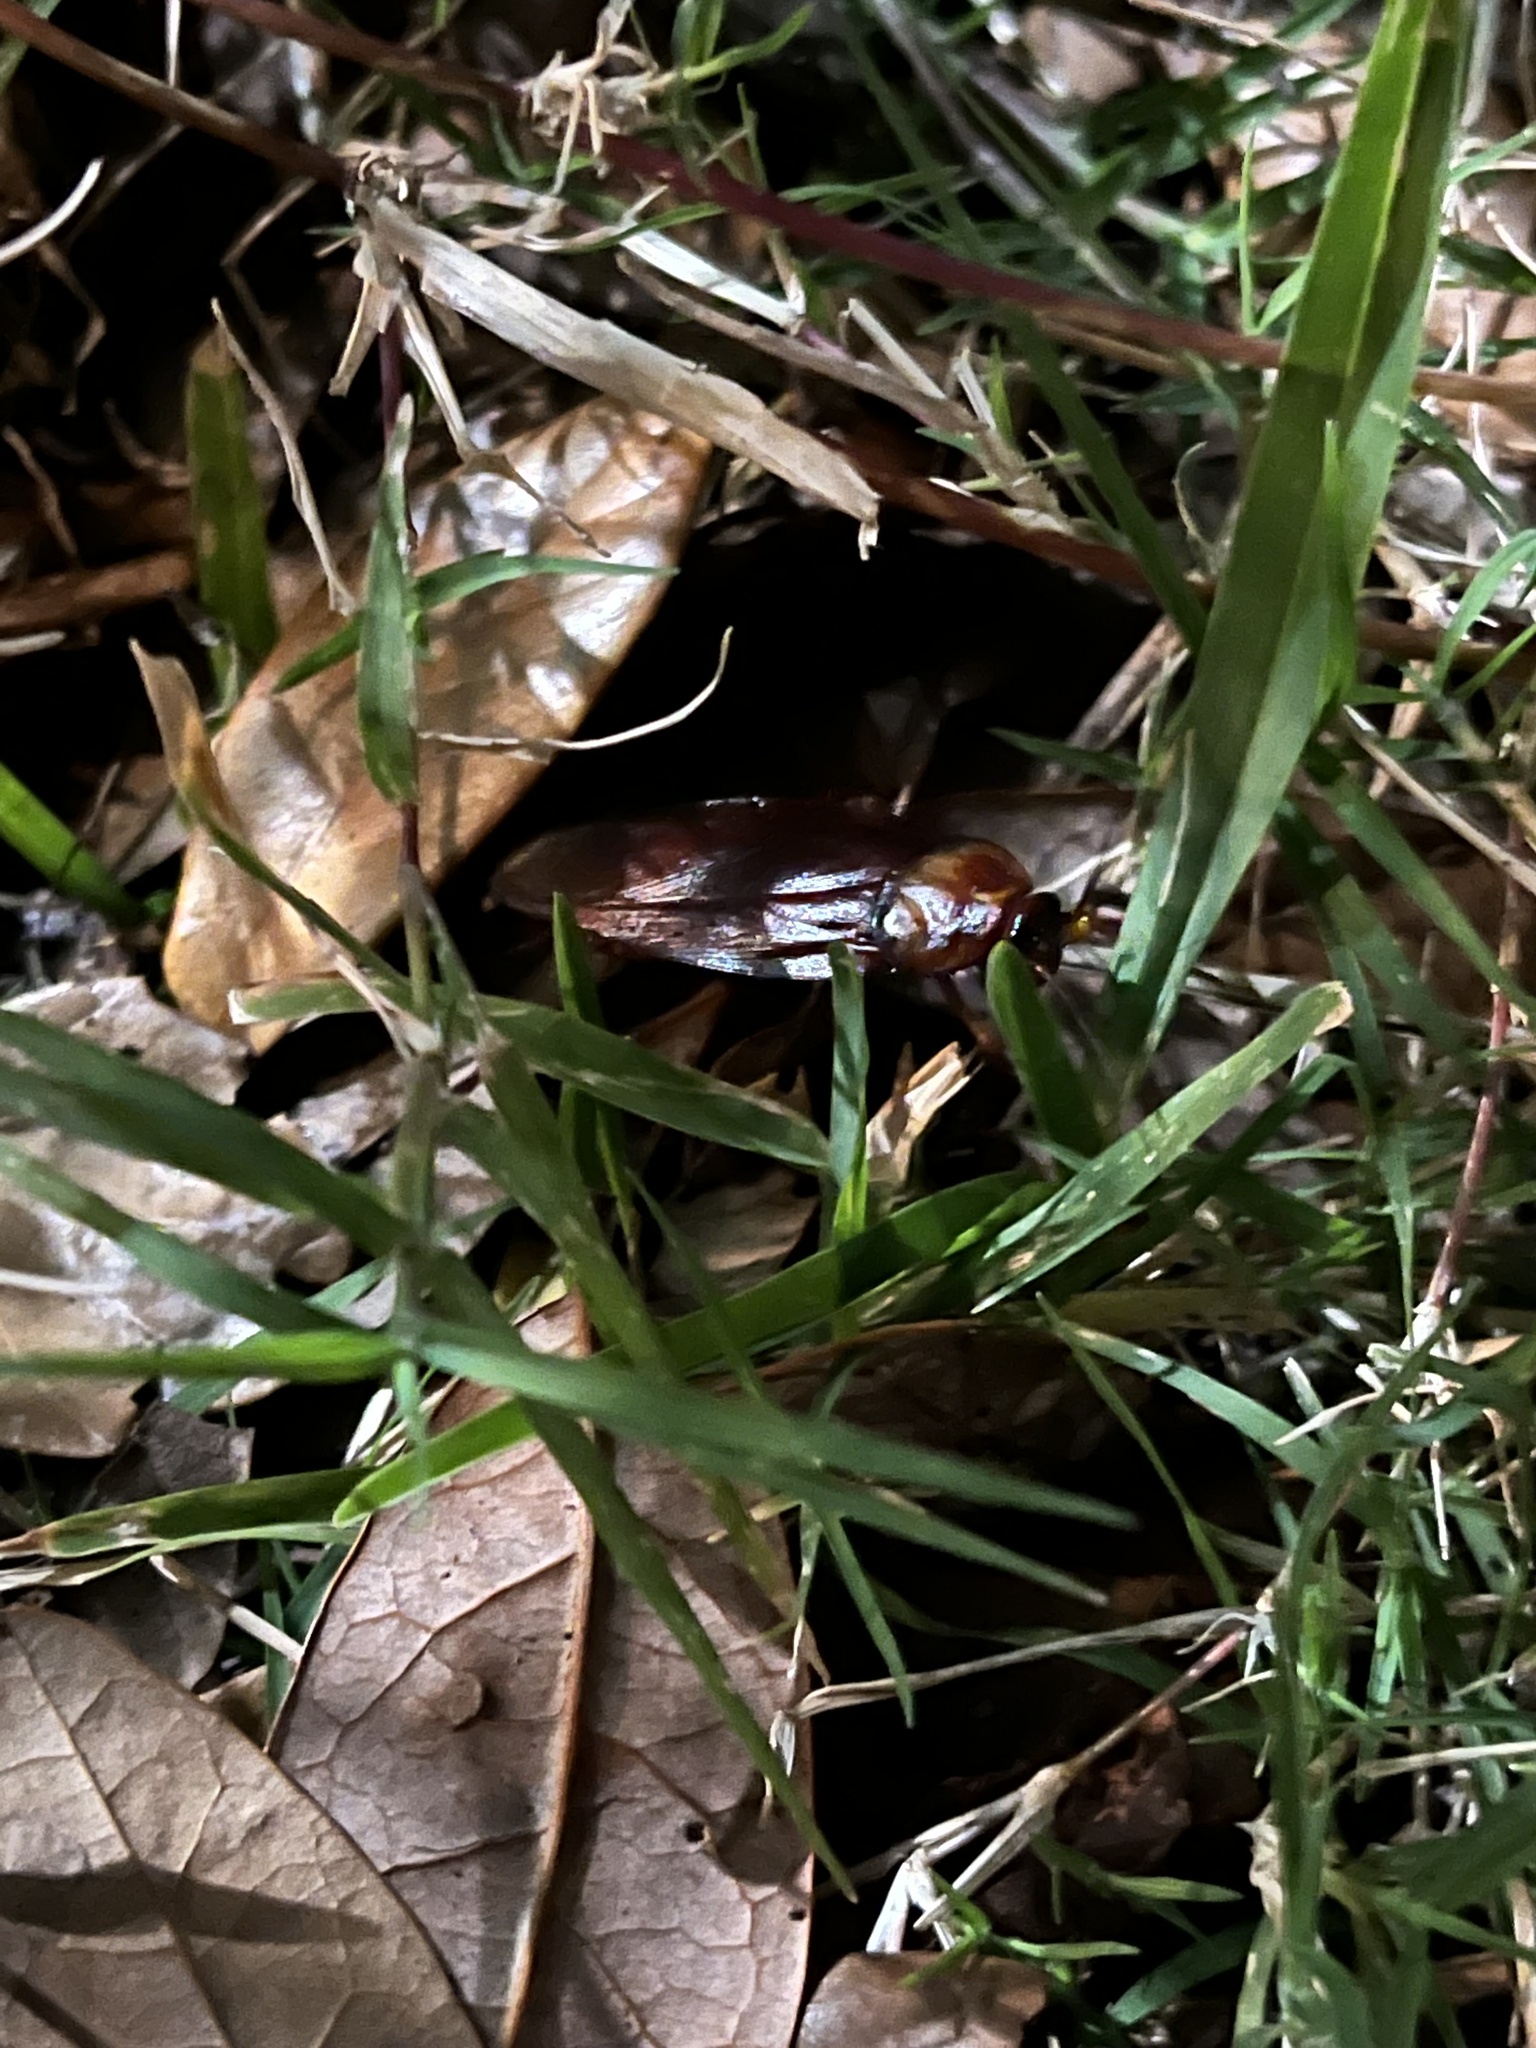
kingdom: Animalia
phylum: Arthropoda
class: Insecta
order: Blattodea
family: Blattidae
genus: Periplaneta
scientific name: Periplaneta americana
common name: American cockroach
